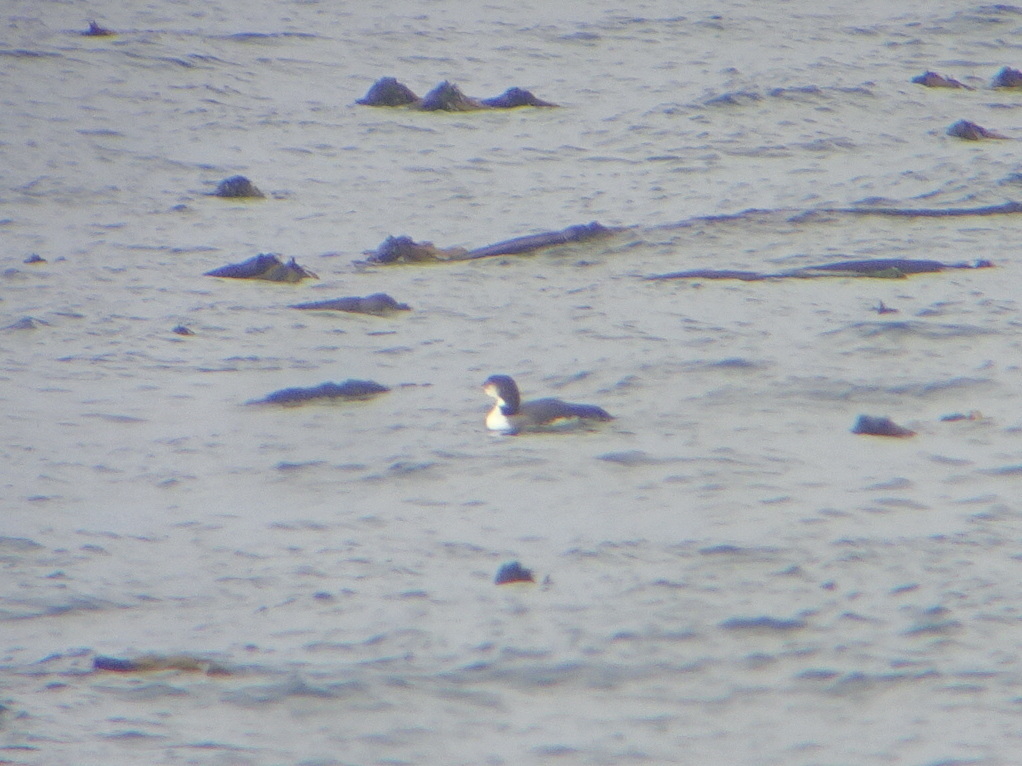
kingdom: Animalia
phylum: Chordata
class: Aves
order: Gaviiformes
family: Gaviidae
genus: Gavia
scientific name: Gavia immer
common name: Common loon
